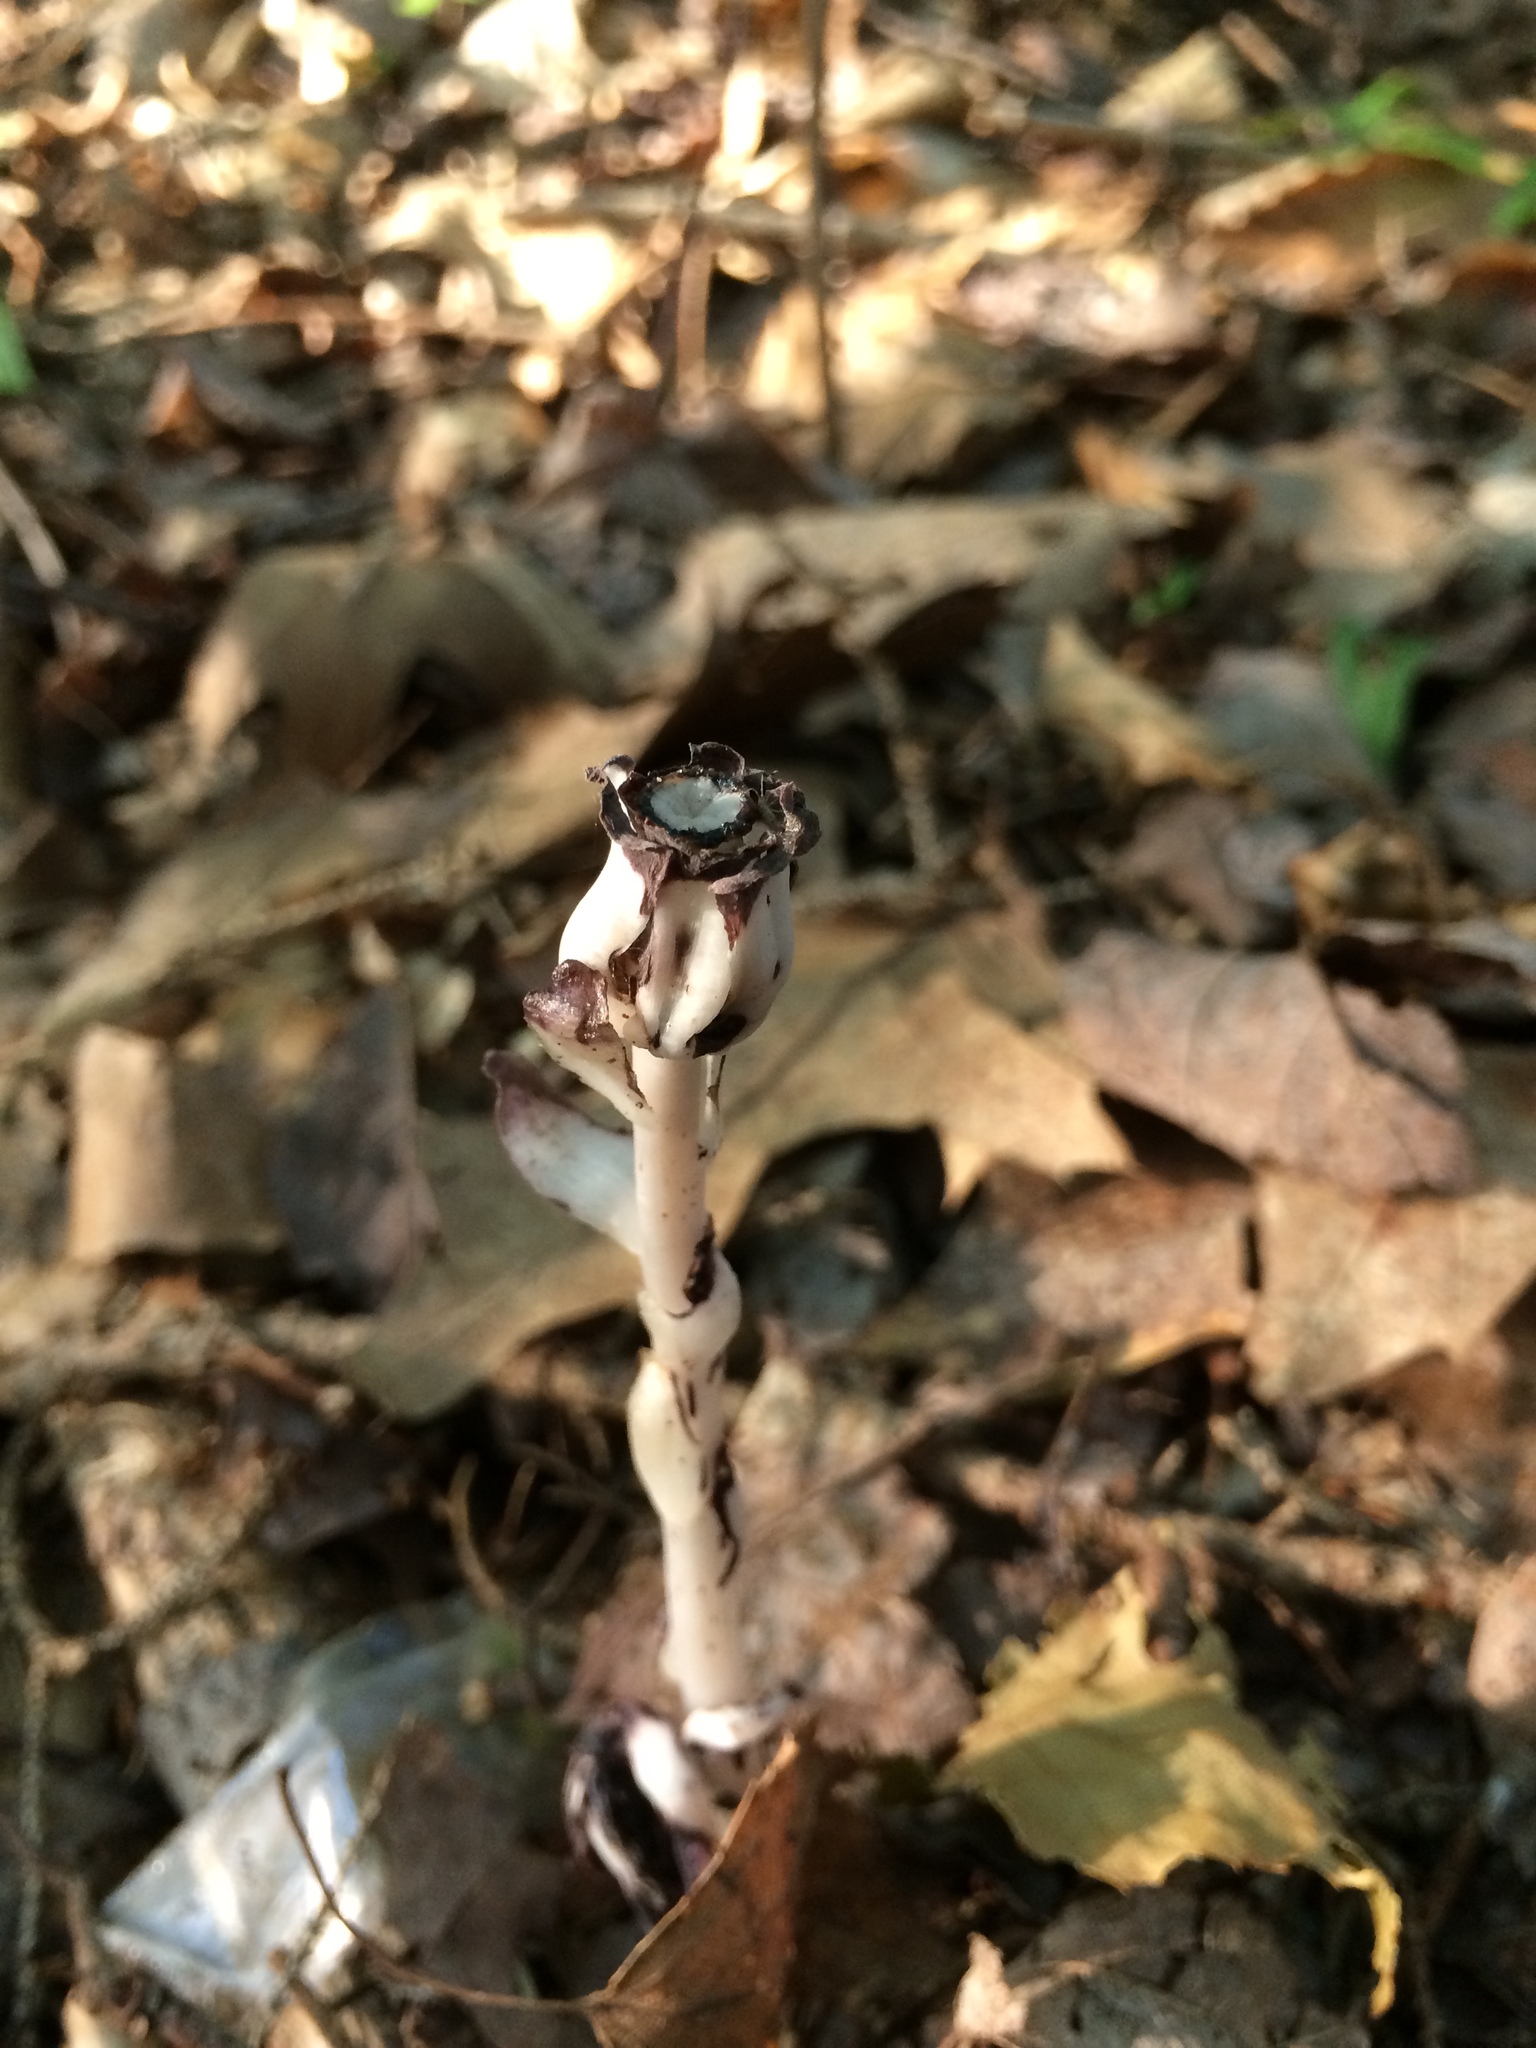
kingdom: Plantae
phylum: Tracheophyta
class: Magnoliopsida
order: Ericales
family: Ericaceae
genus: Monotropa
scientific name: Monotropa uniflora
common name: Convulsion root
